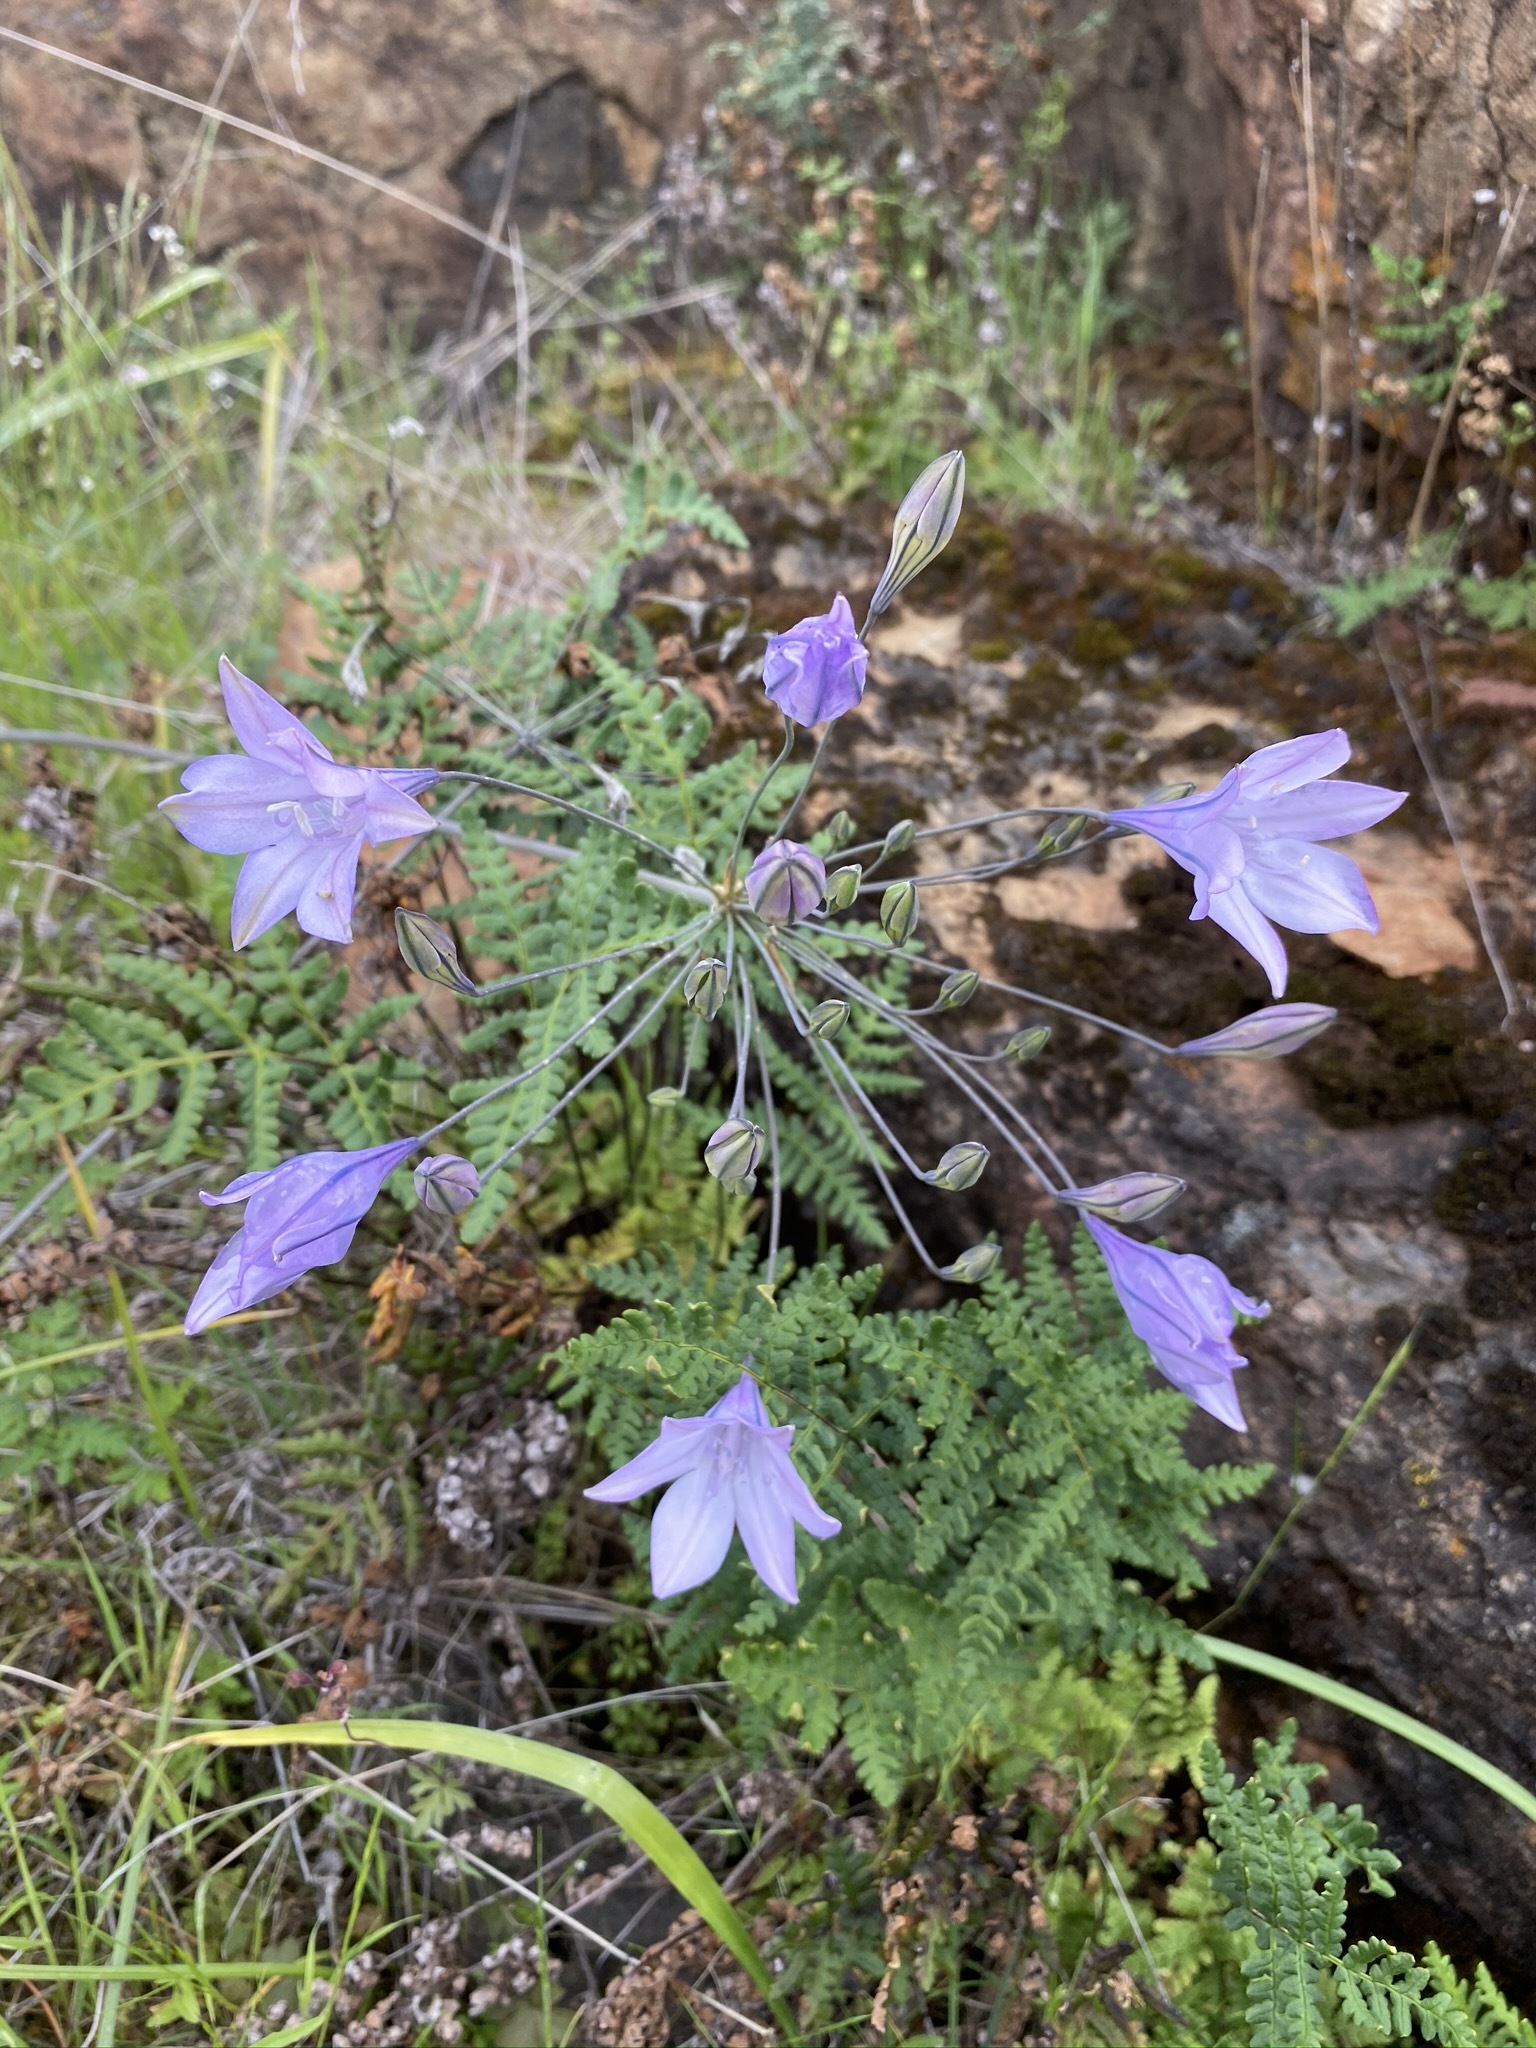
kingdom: Plantae
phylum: Tracheophyta
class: Liliopsida
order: Asparagales
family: Asparagaceae
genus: Triteleia
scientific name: Triteleia laxa
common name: Triplet-lily
